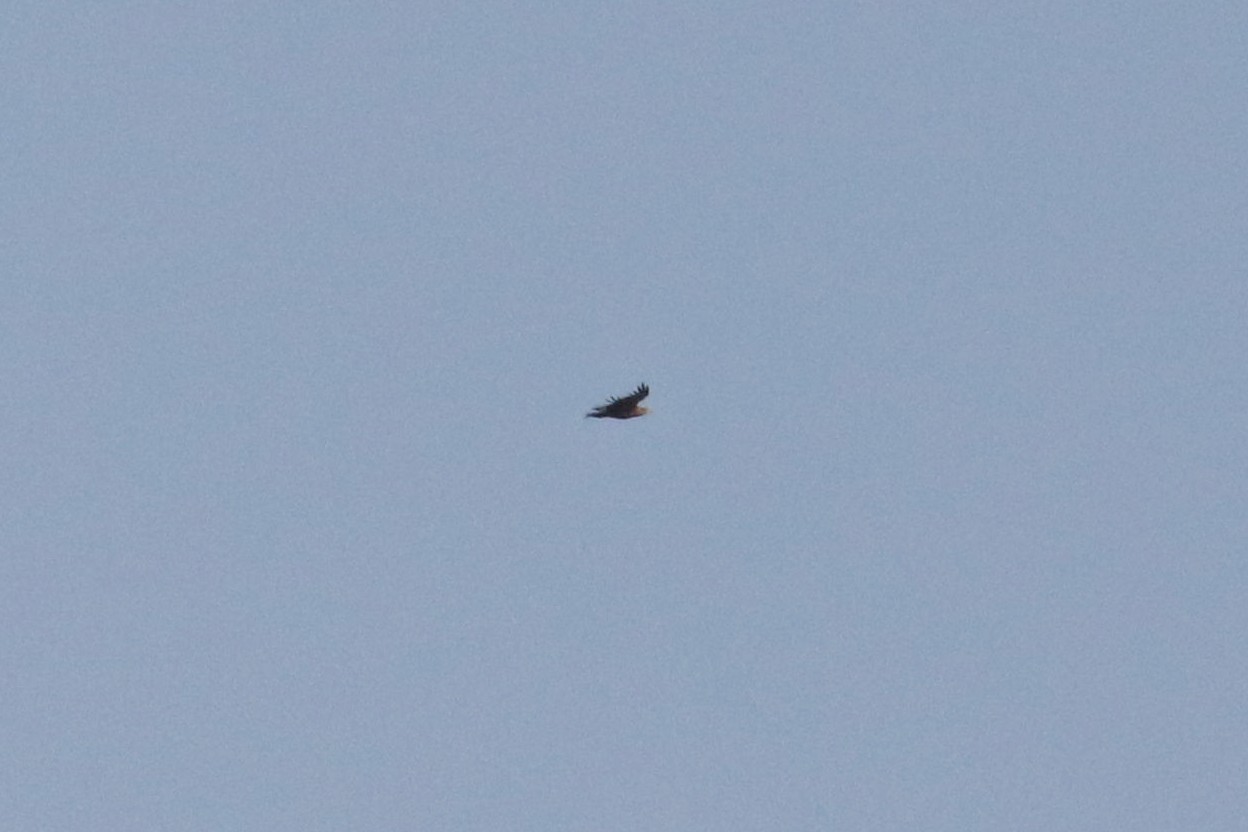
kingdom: Animalia
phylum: Chordata
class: Aves
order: Accipitriformes
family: Accipitridae
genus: Haliaeetus
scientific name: Haliaeetus albicilla
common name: White-tailed eagle
